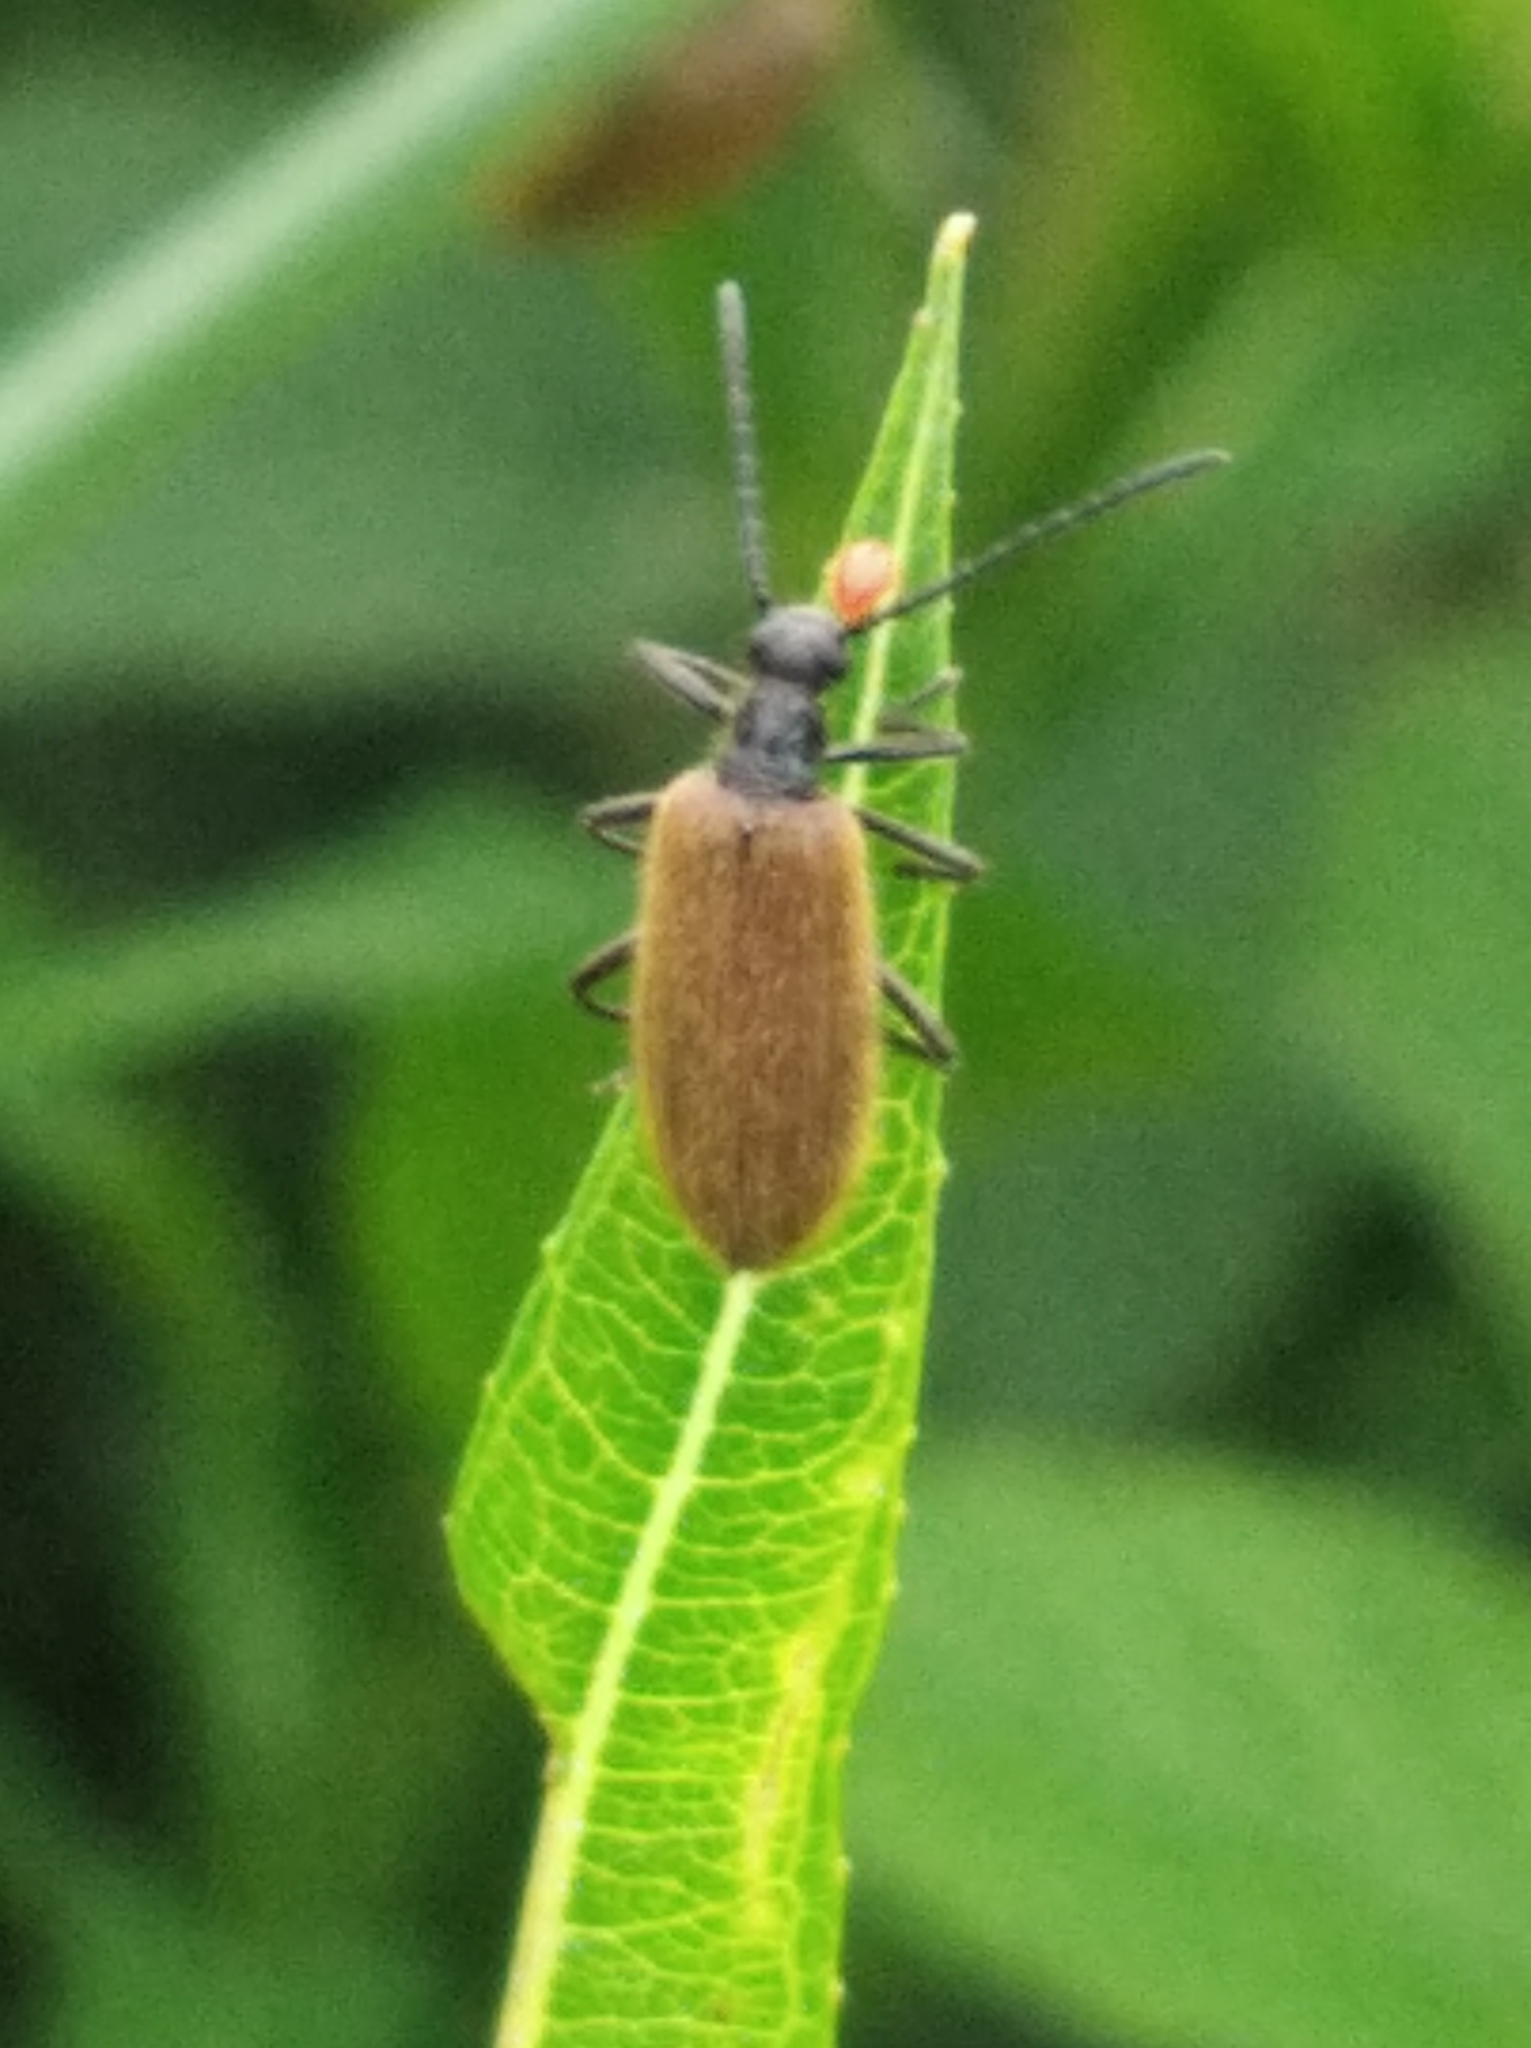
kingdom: Animalia
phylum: Arthropoda
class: Insecta
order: Coleoptera
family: Tenebrionidae
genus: Lagria
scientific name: Lagria hirta
